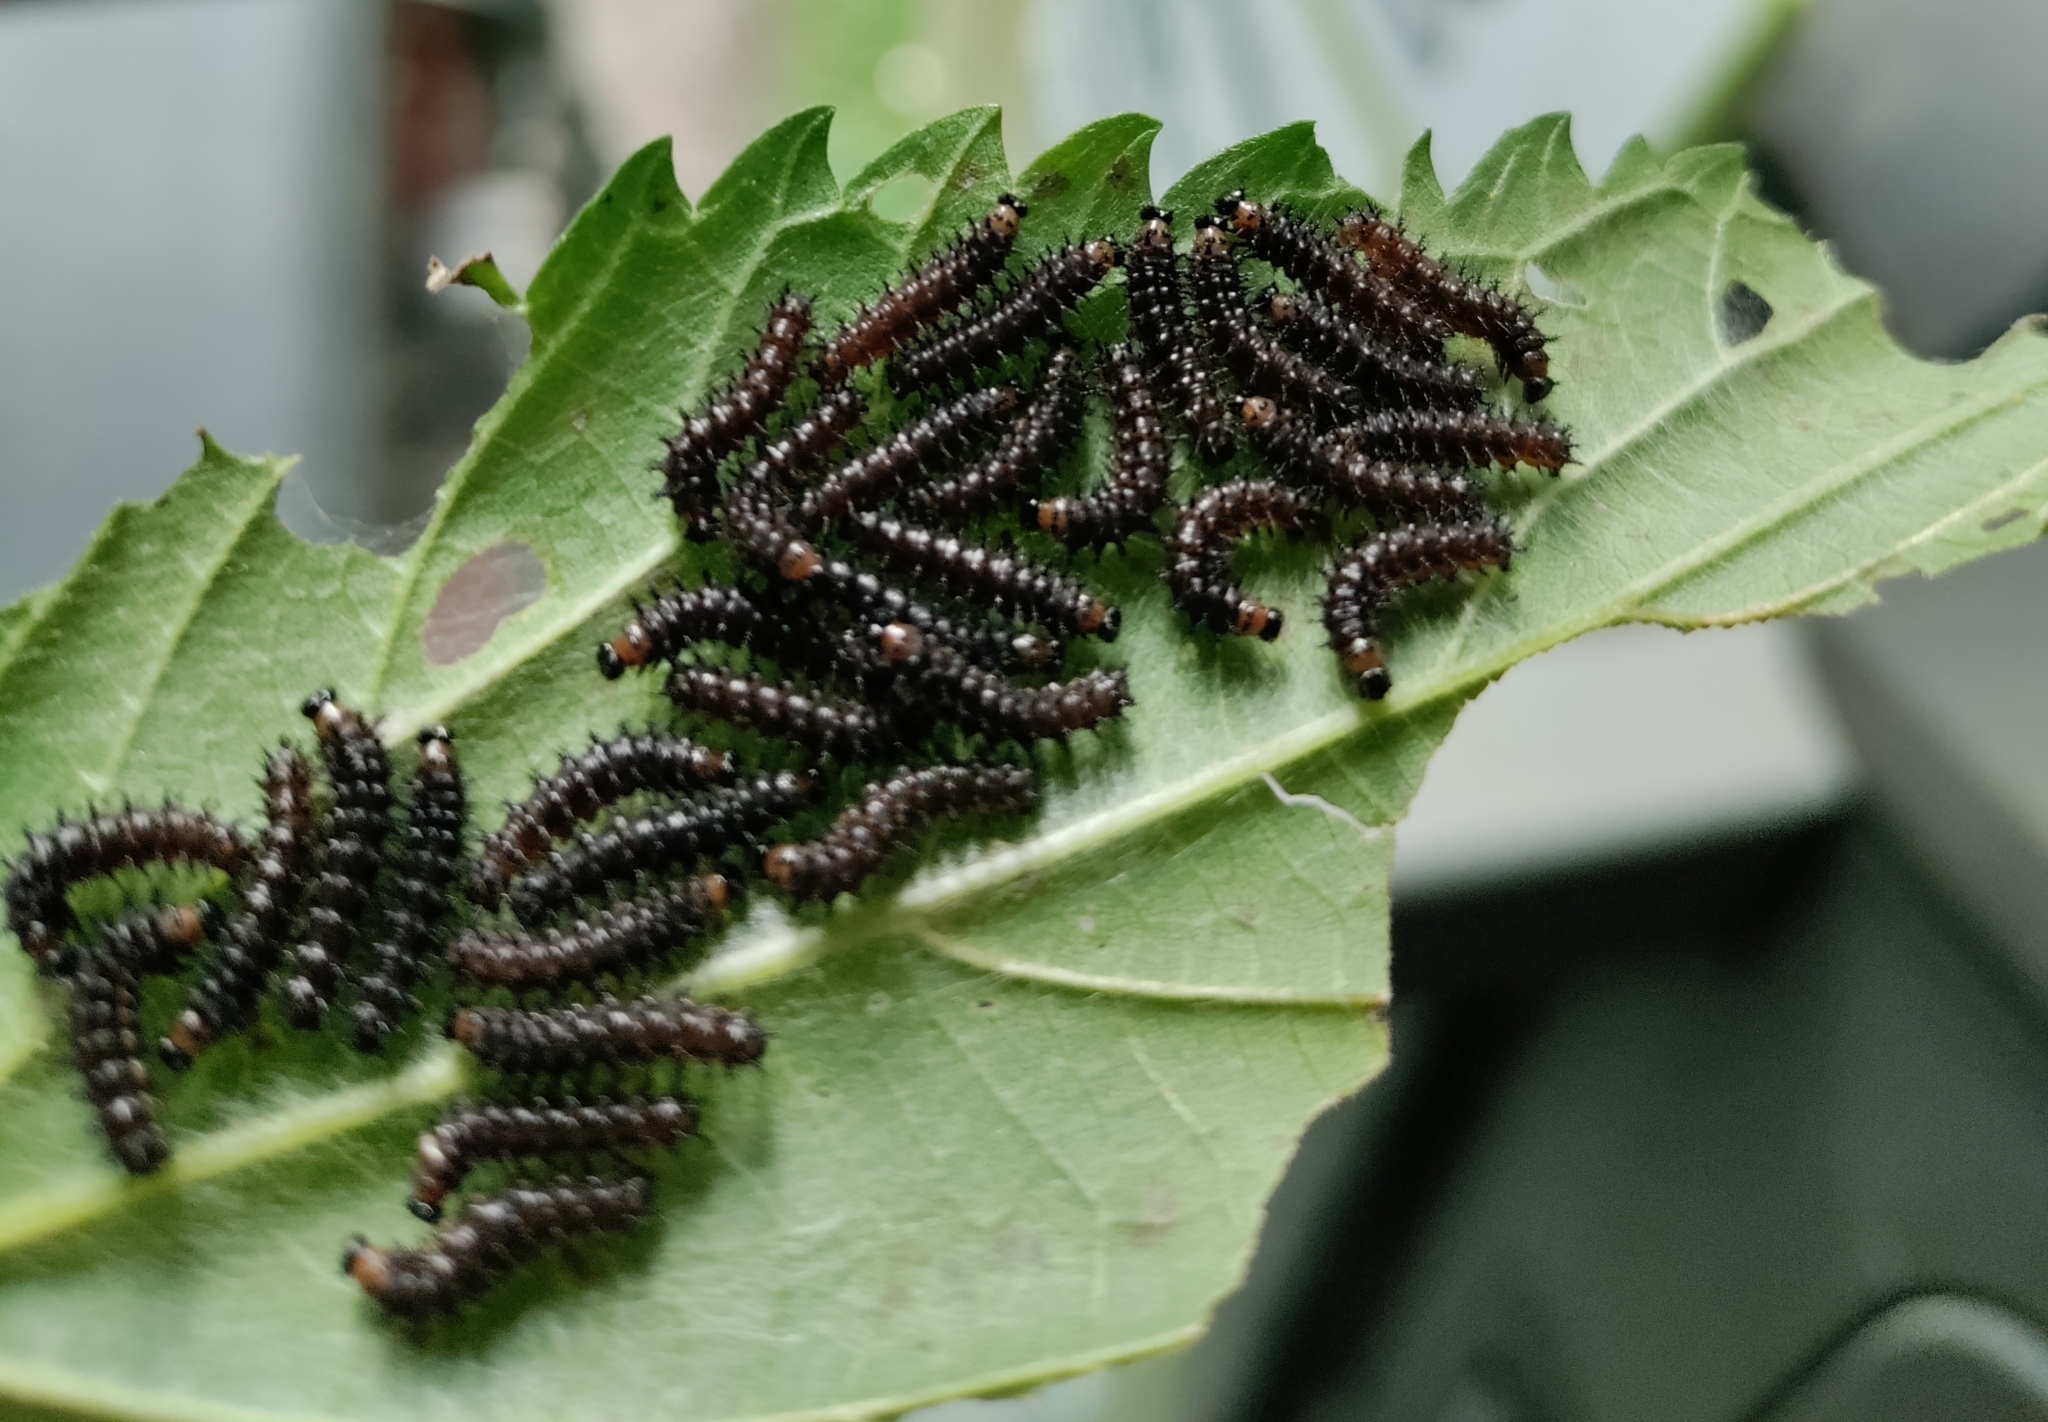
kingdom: Animalia
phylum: Arthropoda
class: Insecta
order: Lepidoptera
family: Nymphalidae
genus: Araschnia
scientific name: Araschnia levana
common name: Map butterfly
